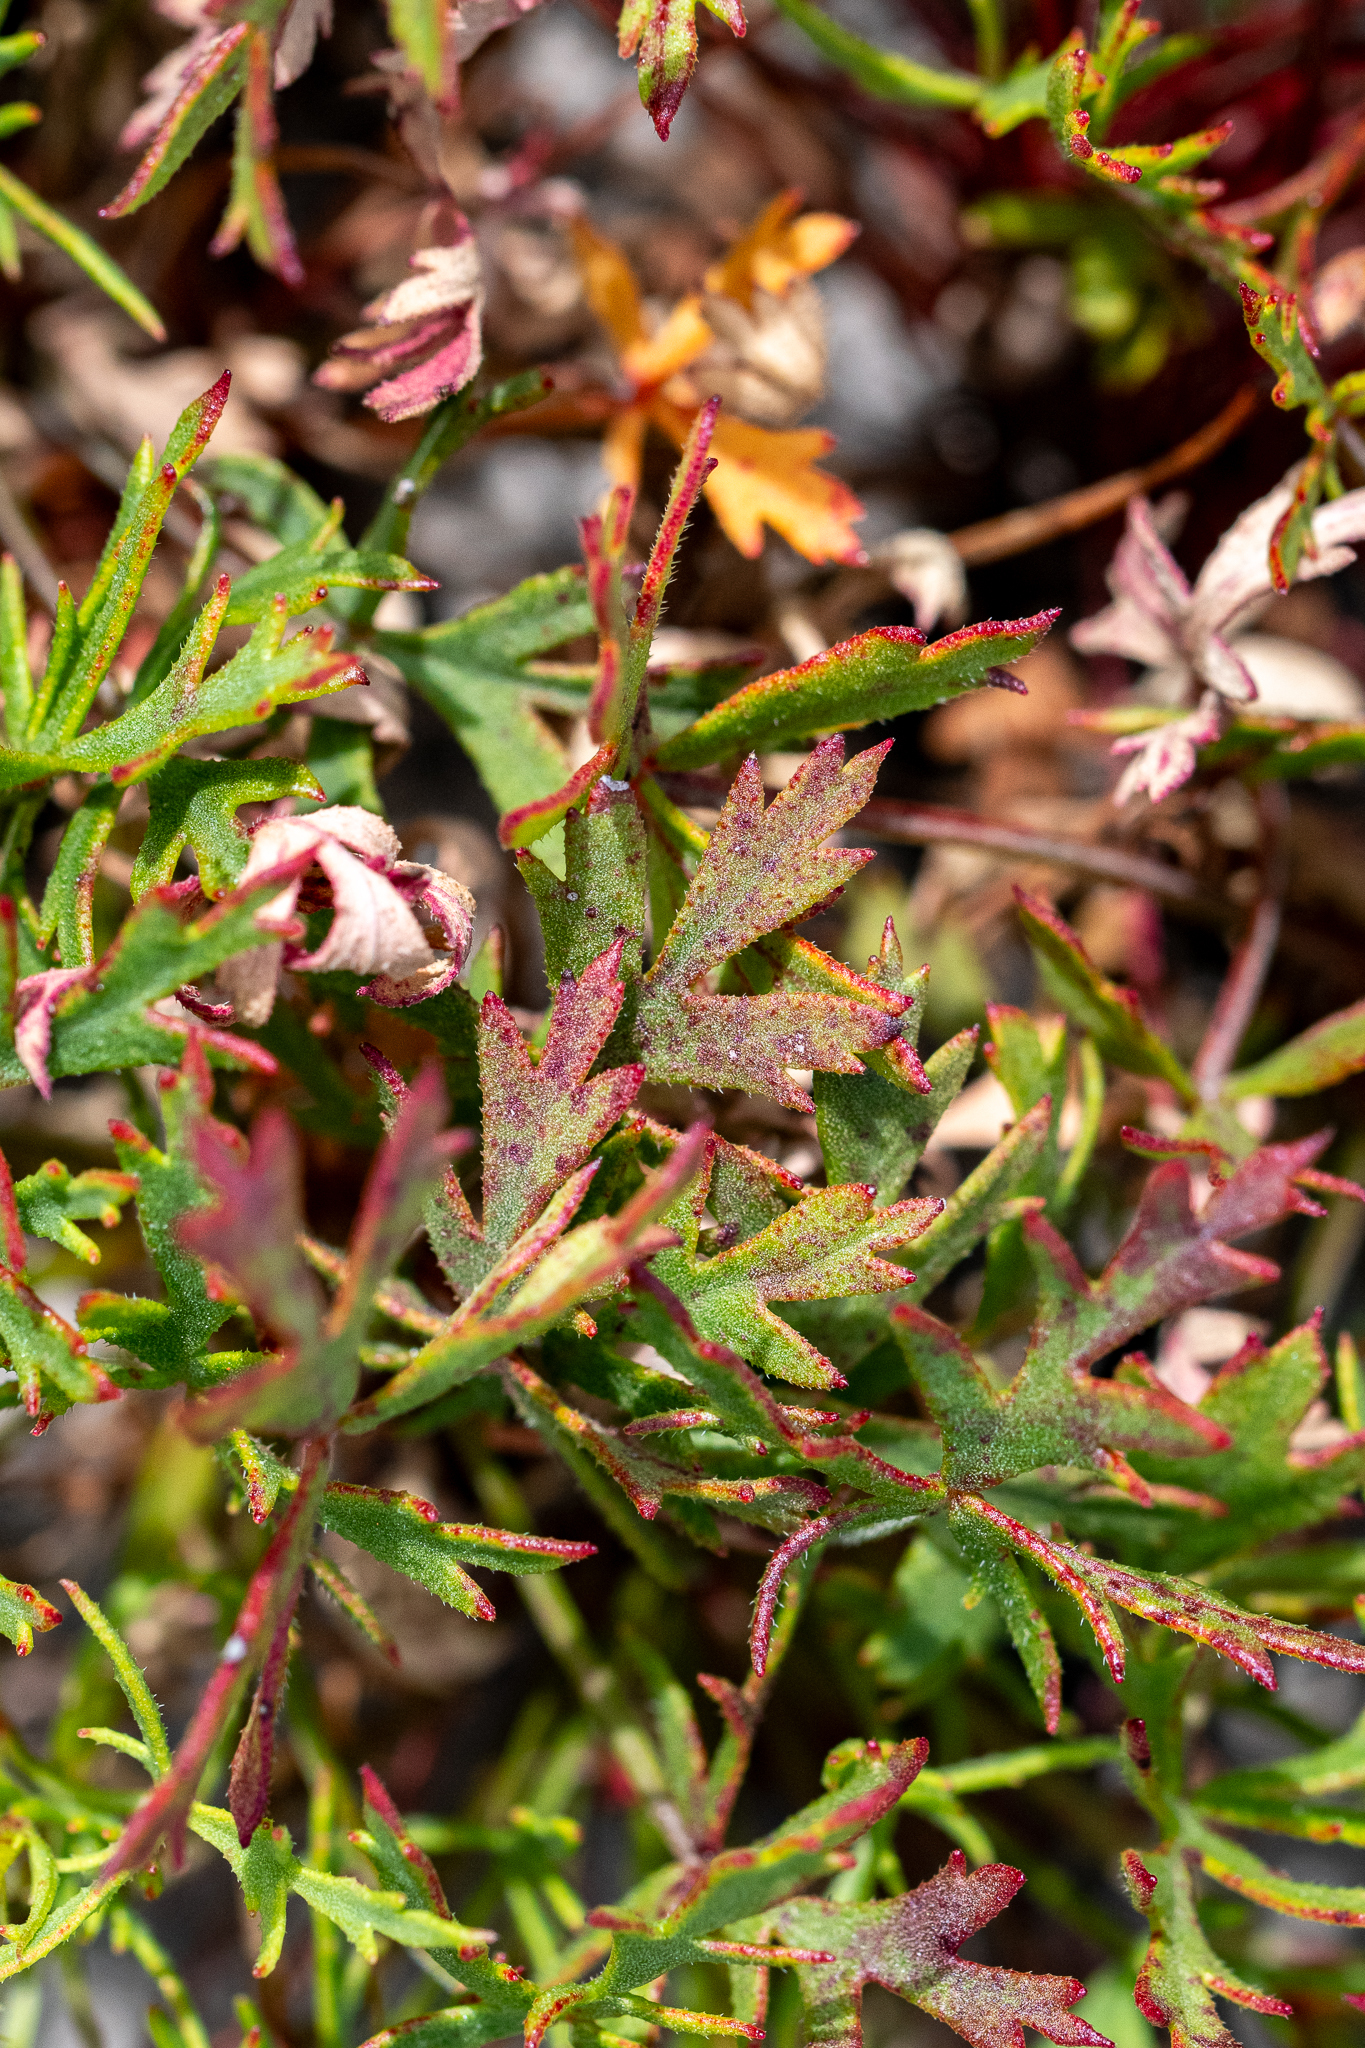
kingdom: Plantae
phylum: Tracheophyta
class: Magnoliopsida
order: Geraniales
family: Geraniaceae
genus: Pelargonium
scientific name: Pelargonium incarnatum
